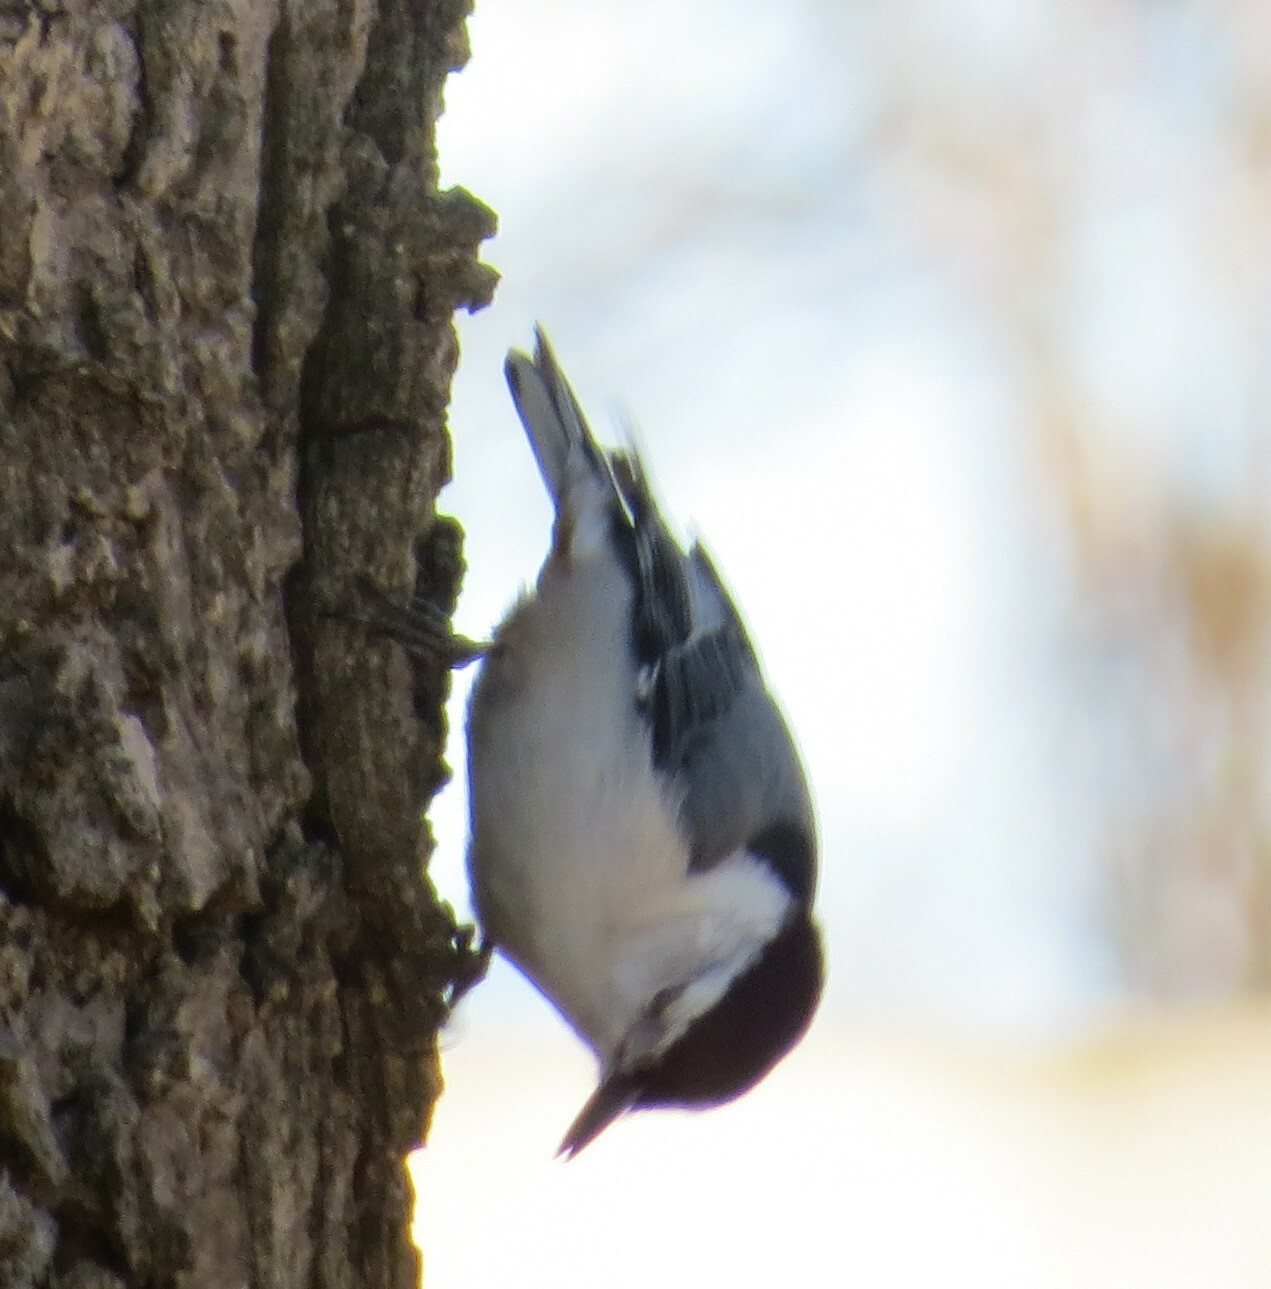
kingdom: Animalia
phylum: Chordata
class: Aves
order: Passeriformes
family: Sittidae
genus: Sitta
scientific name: Sitta carolinensis
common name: White-breasted nuthatch
